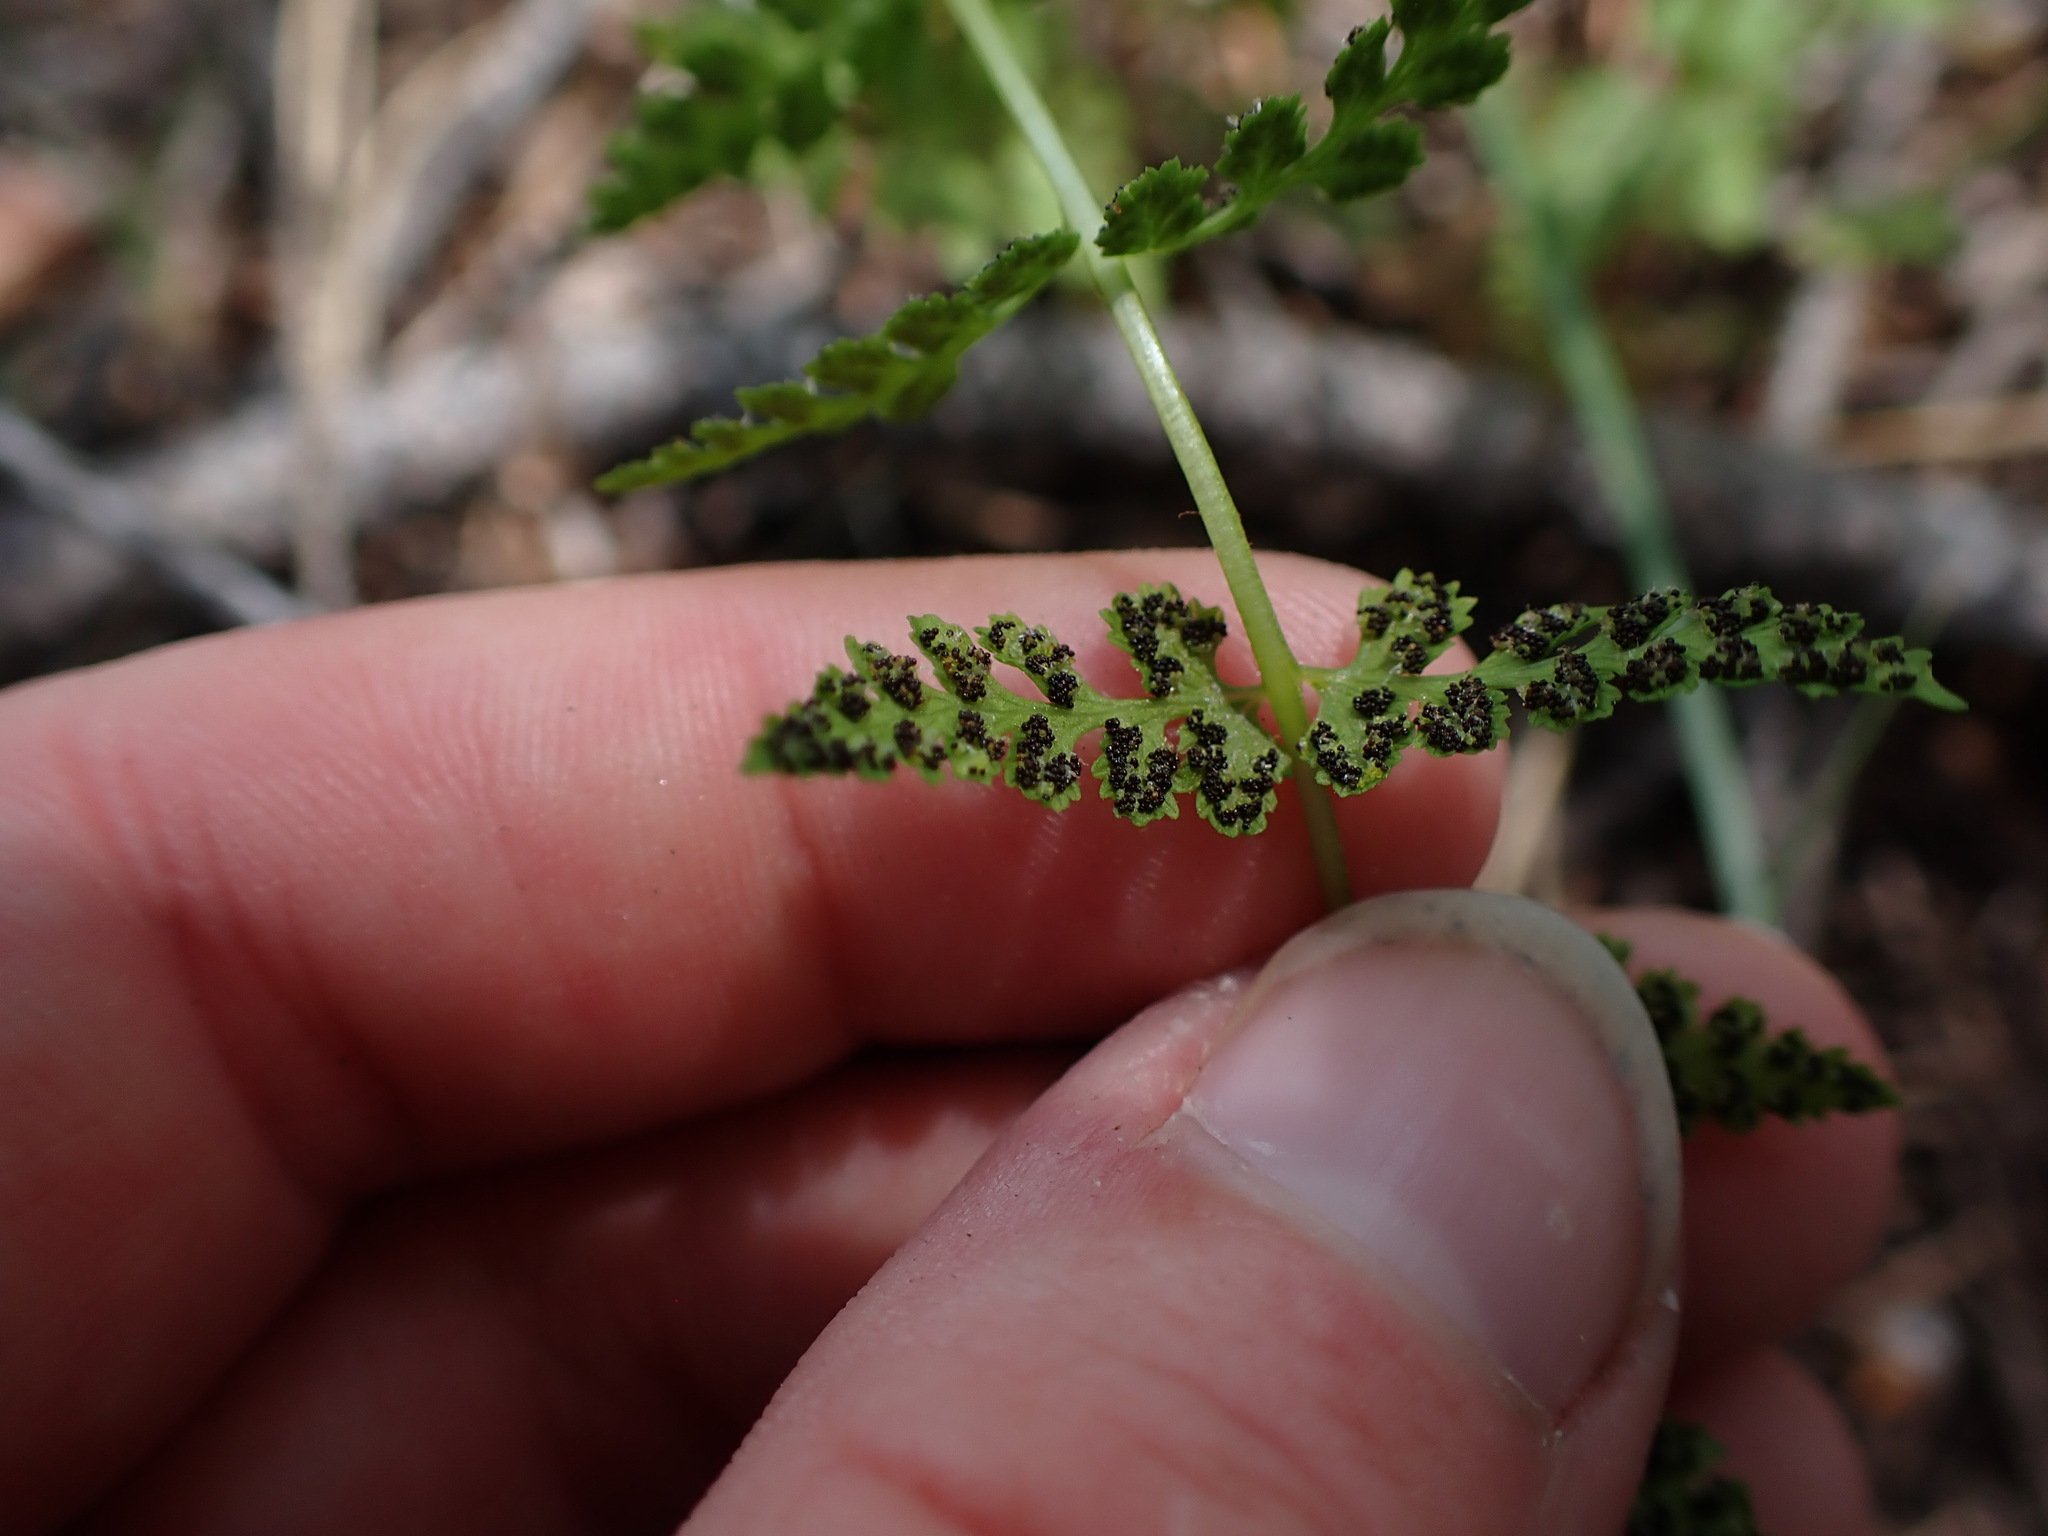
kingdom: Plantae
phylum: Tracheophyta
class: Polypodiopsida
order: Polypodiales
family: Cystopteridaceae
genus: Cystopteris
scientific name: Cystopteris fragilis
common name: Brittle bladder fern
